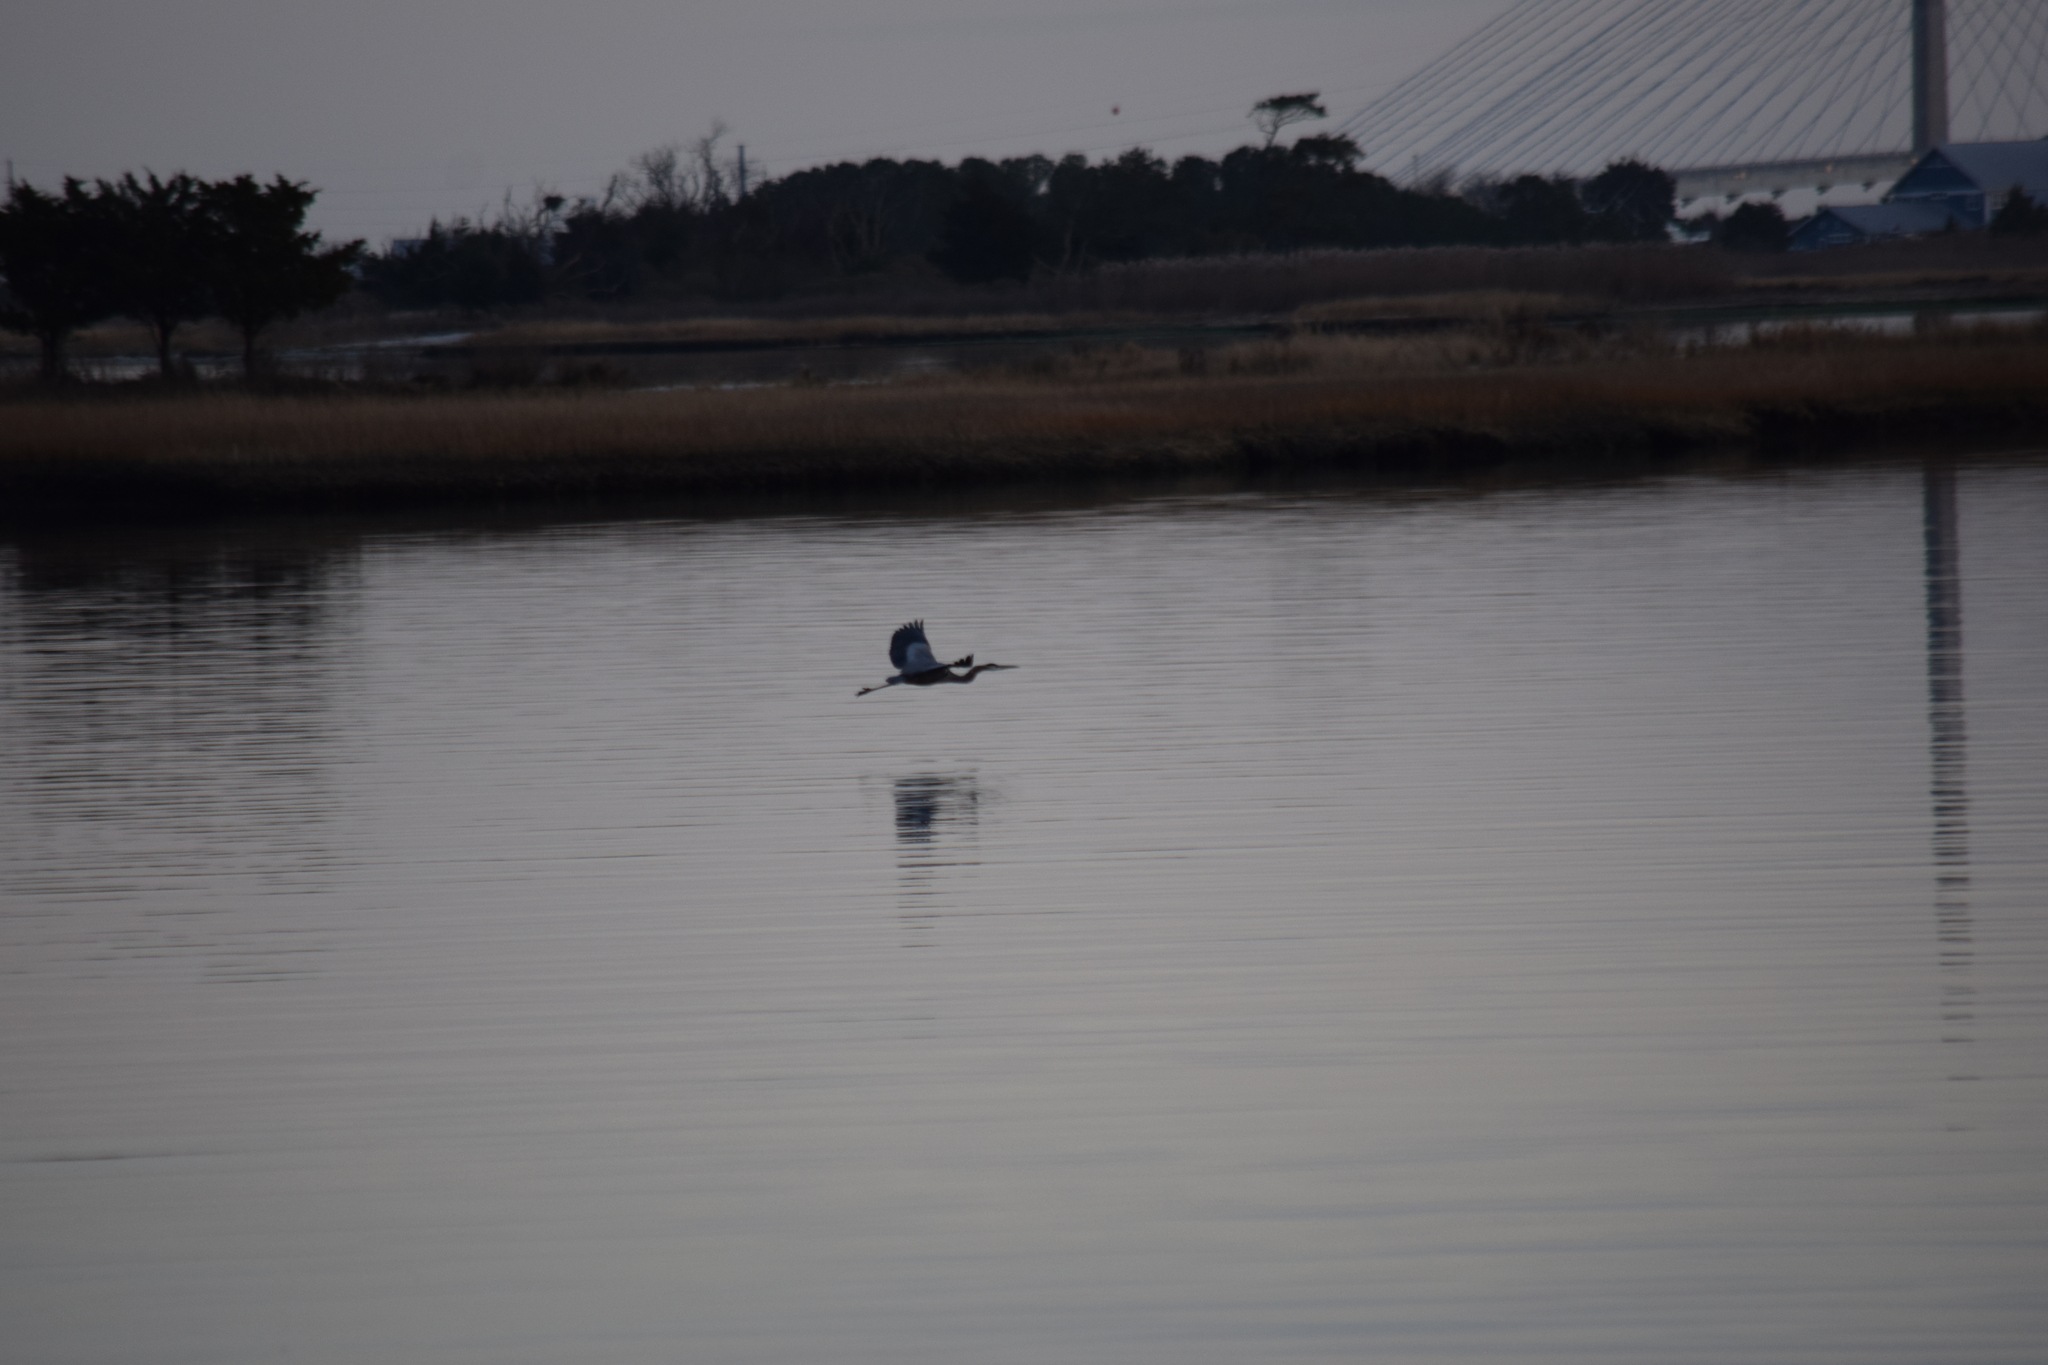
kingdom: Animalia
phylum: Chordata
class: Aves
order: Pelecaniformes
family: Ardeidae
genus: Ardea
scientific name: Ardea herodias
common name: Great blue heron
